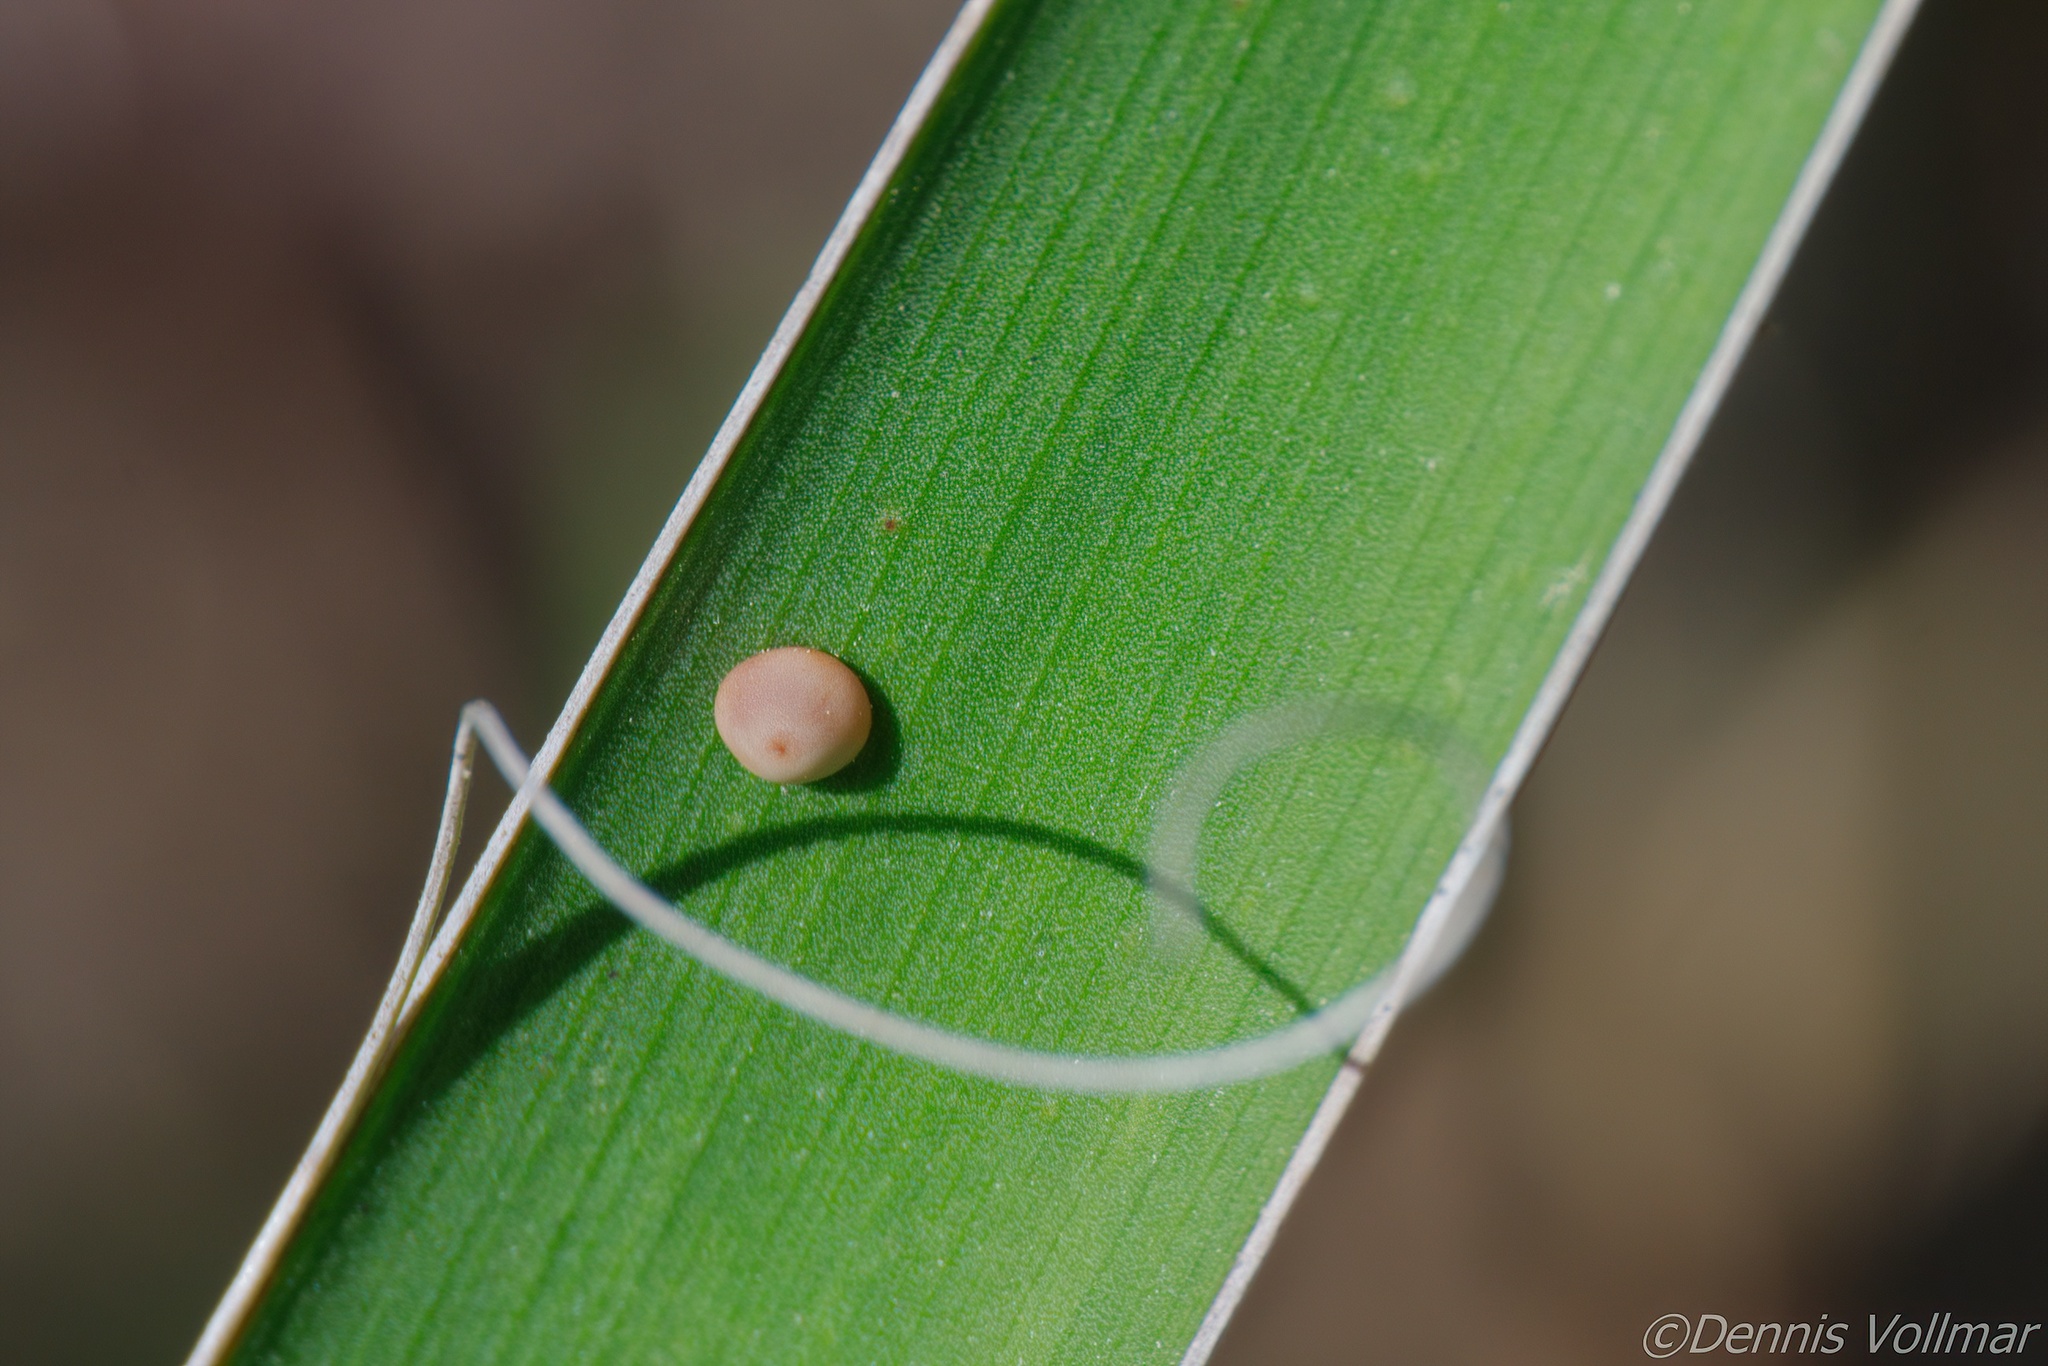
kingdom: Animalia
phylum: Arthropoda
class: Insecta
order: Lepidoptera
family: Hesperiidae
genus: Megathymus
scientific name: Megathymus yuccae
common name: Yucca giant-skipper
